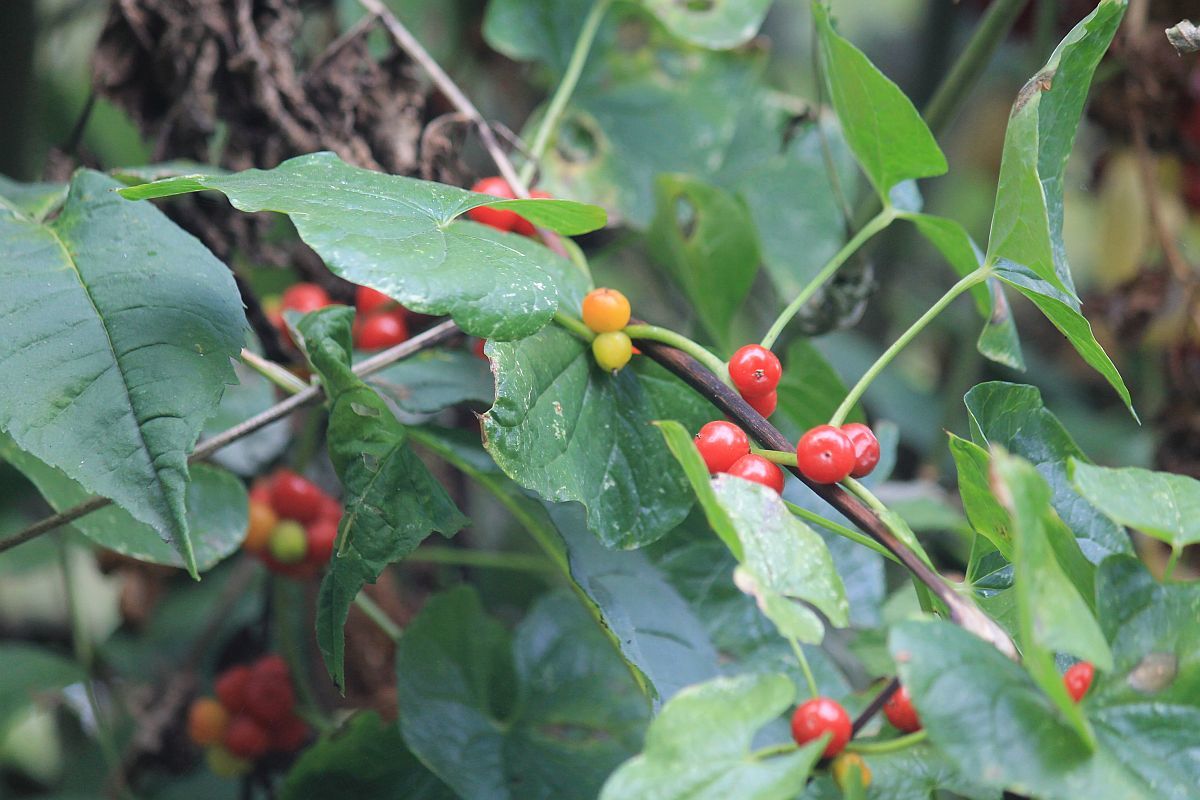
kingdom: Plantae
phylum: Tracheophyta
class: Liliopsida
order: Dioscoreales
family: Dioscoreaceae
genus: Dioscorea
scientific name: Dioscorea communis
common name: Black-bindweed
